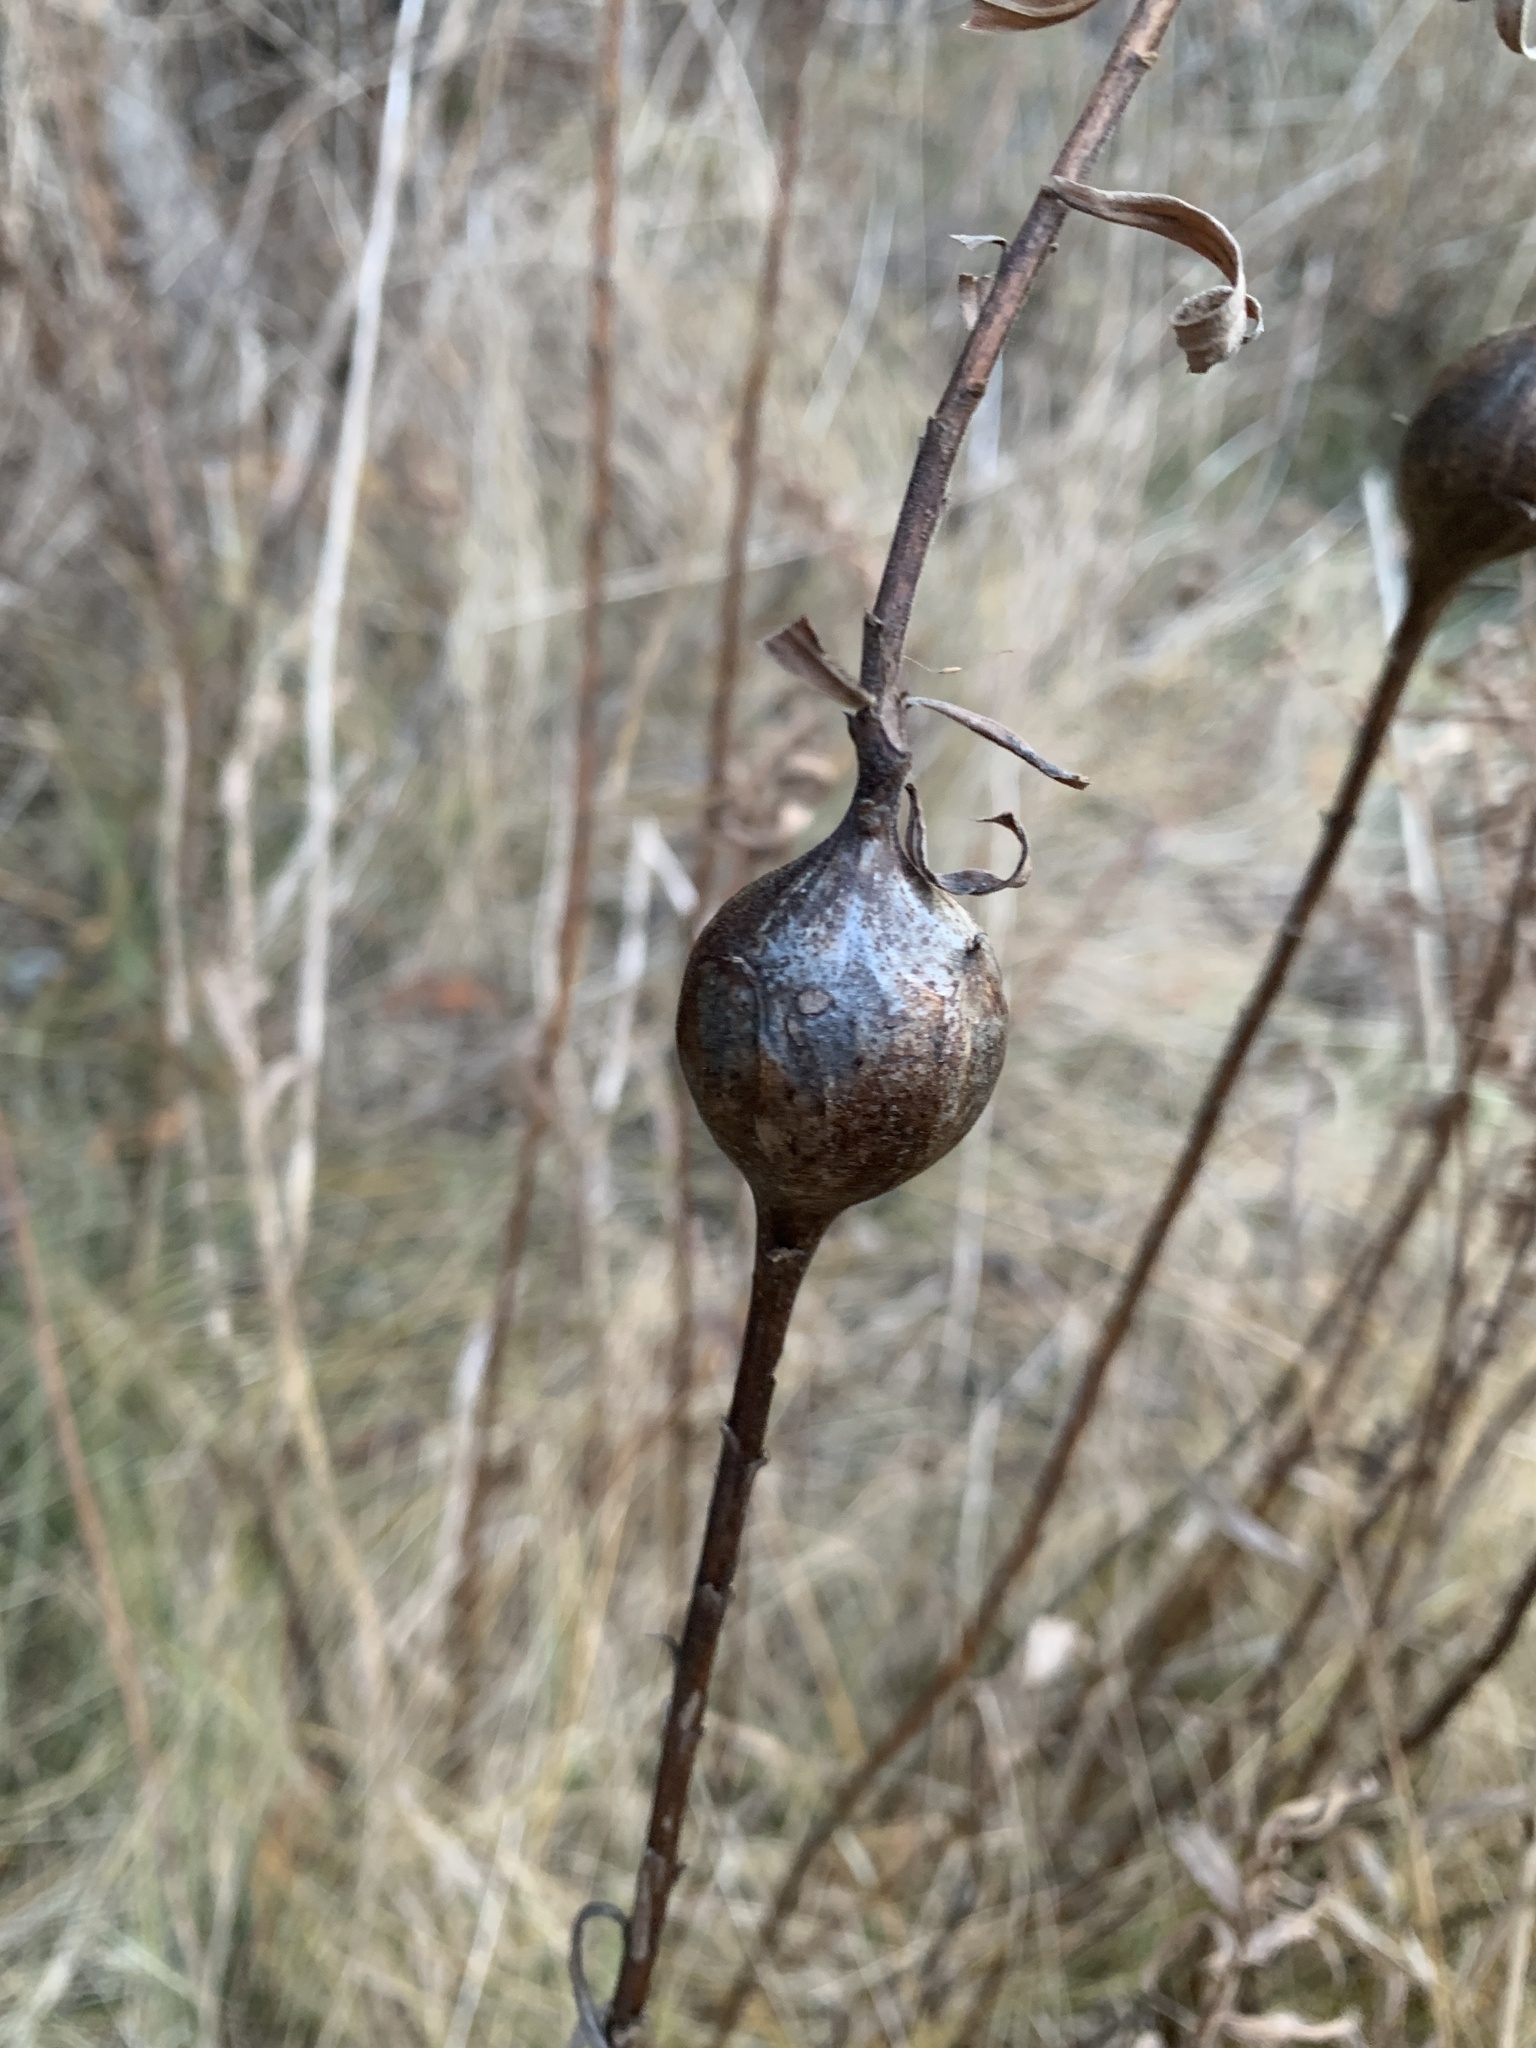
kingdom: Animalia
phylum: Arthropoda
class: Insecta
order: Diptera
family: Tephritidae
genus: Eurosta
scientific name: Eurosta solidaginis
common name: Goldenrod gall fly
